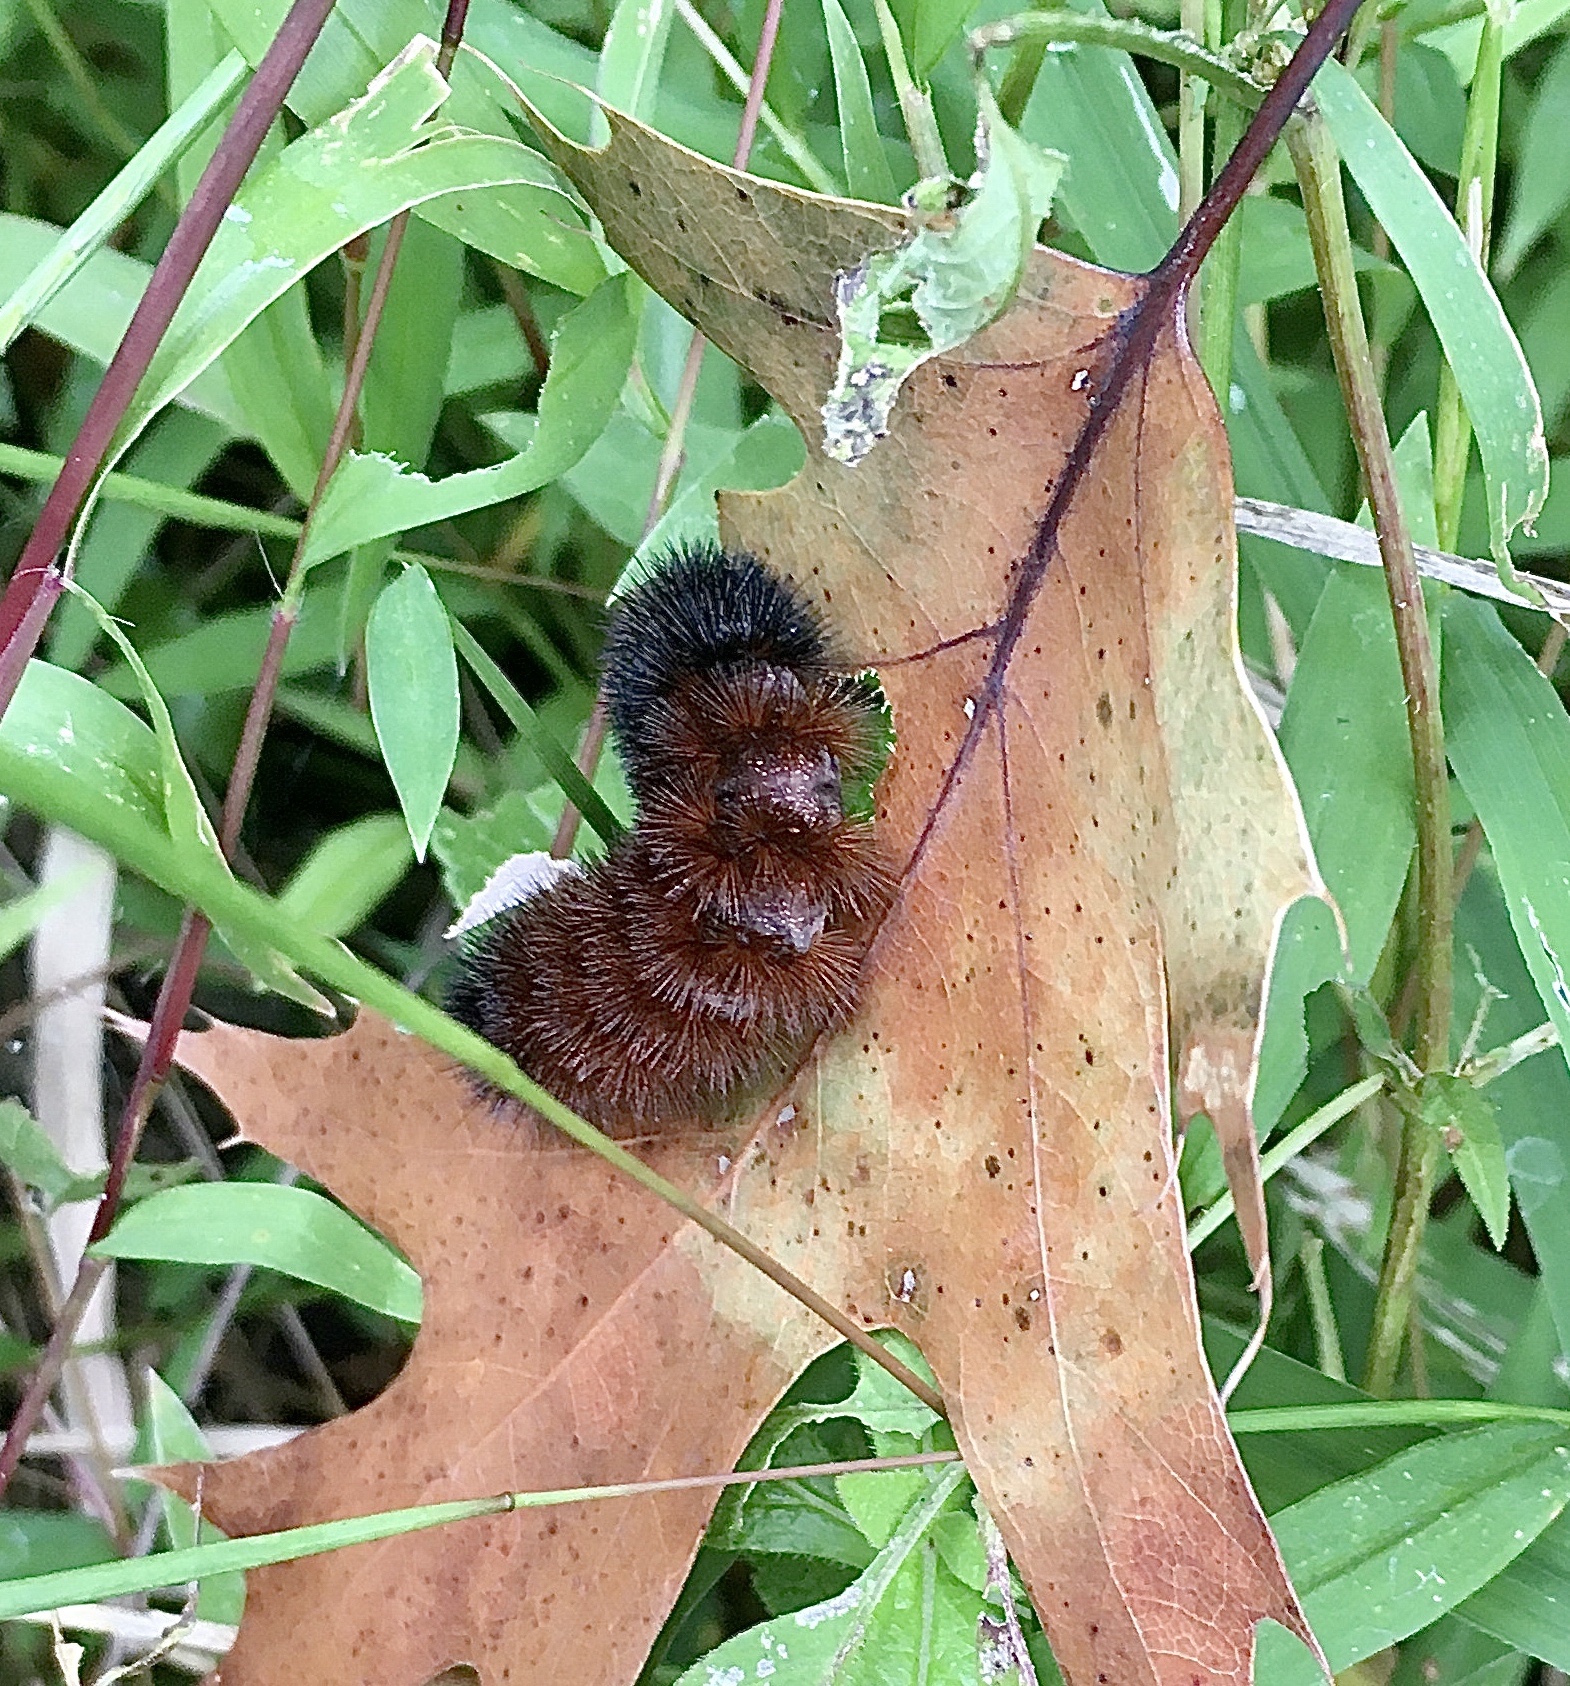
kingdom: Animalia
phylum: Arthropoda
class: Insecta
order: Lepidoptera
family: Erebidae
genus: Pyrrharctia
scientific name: Pyrrharctia isabella
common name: Isabella tiger moth
